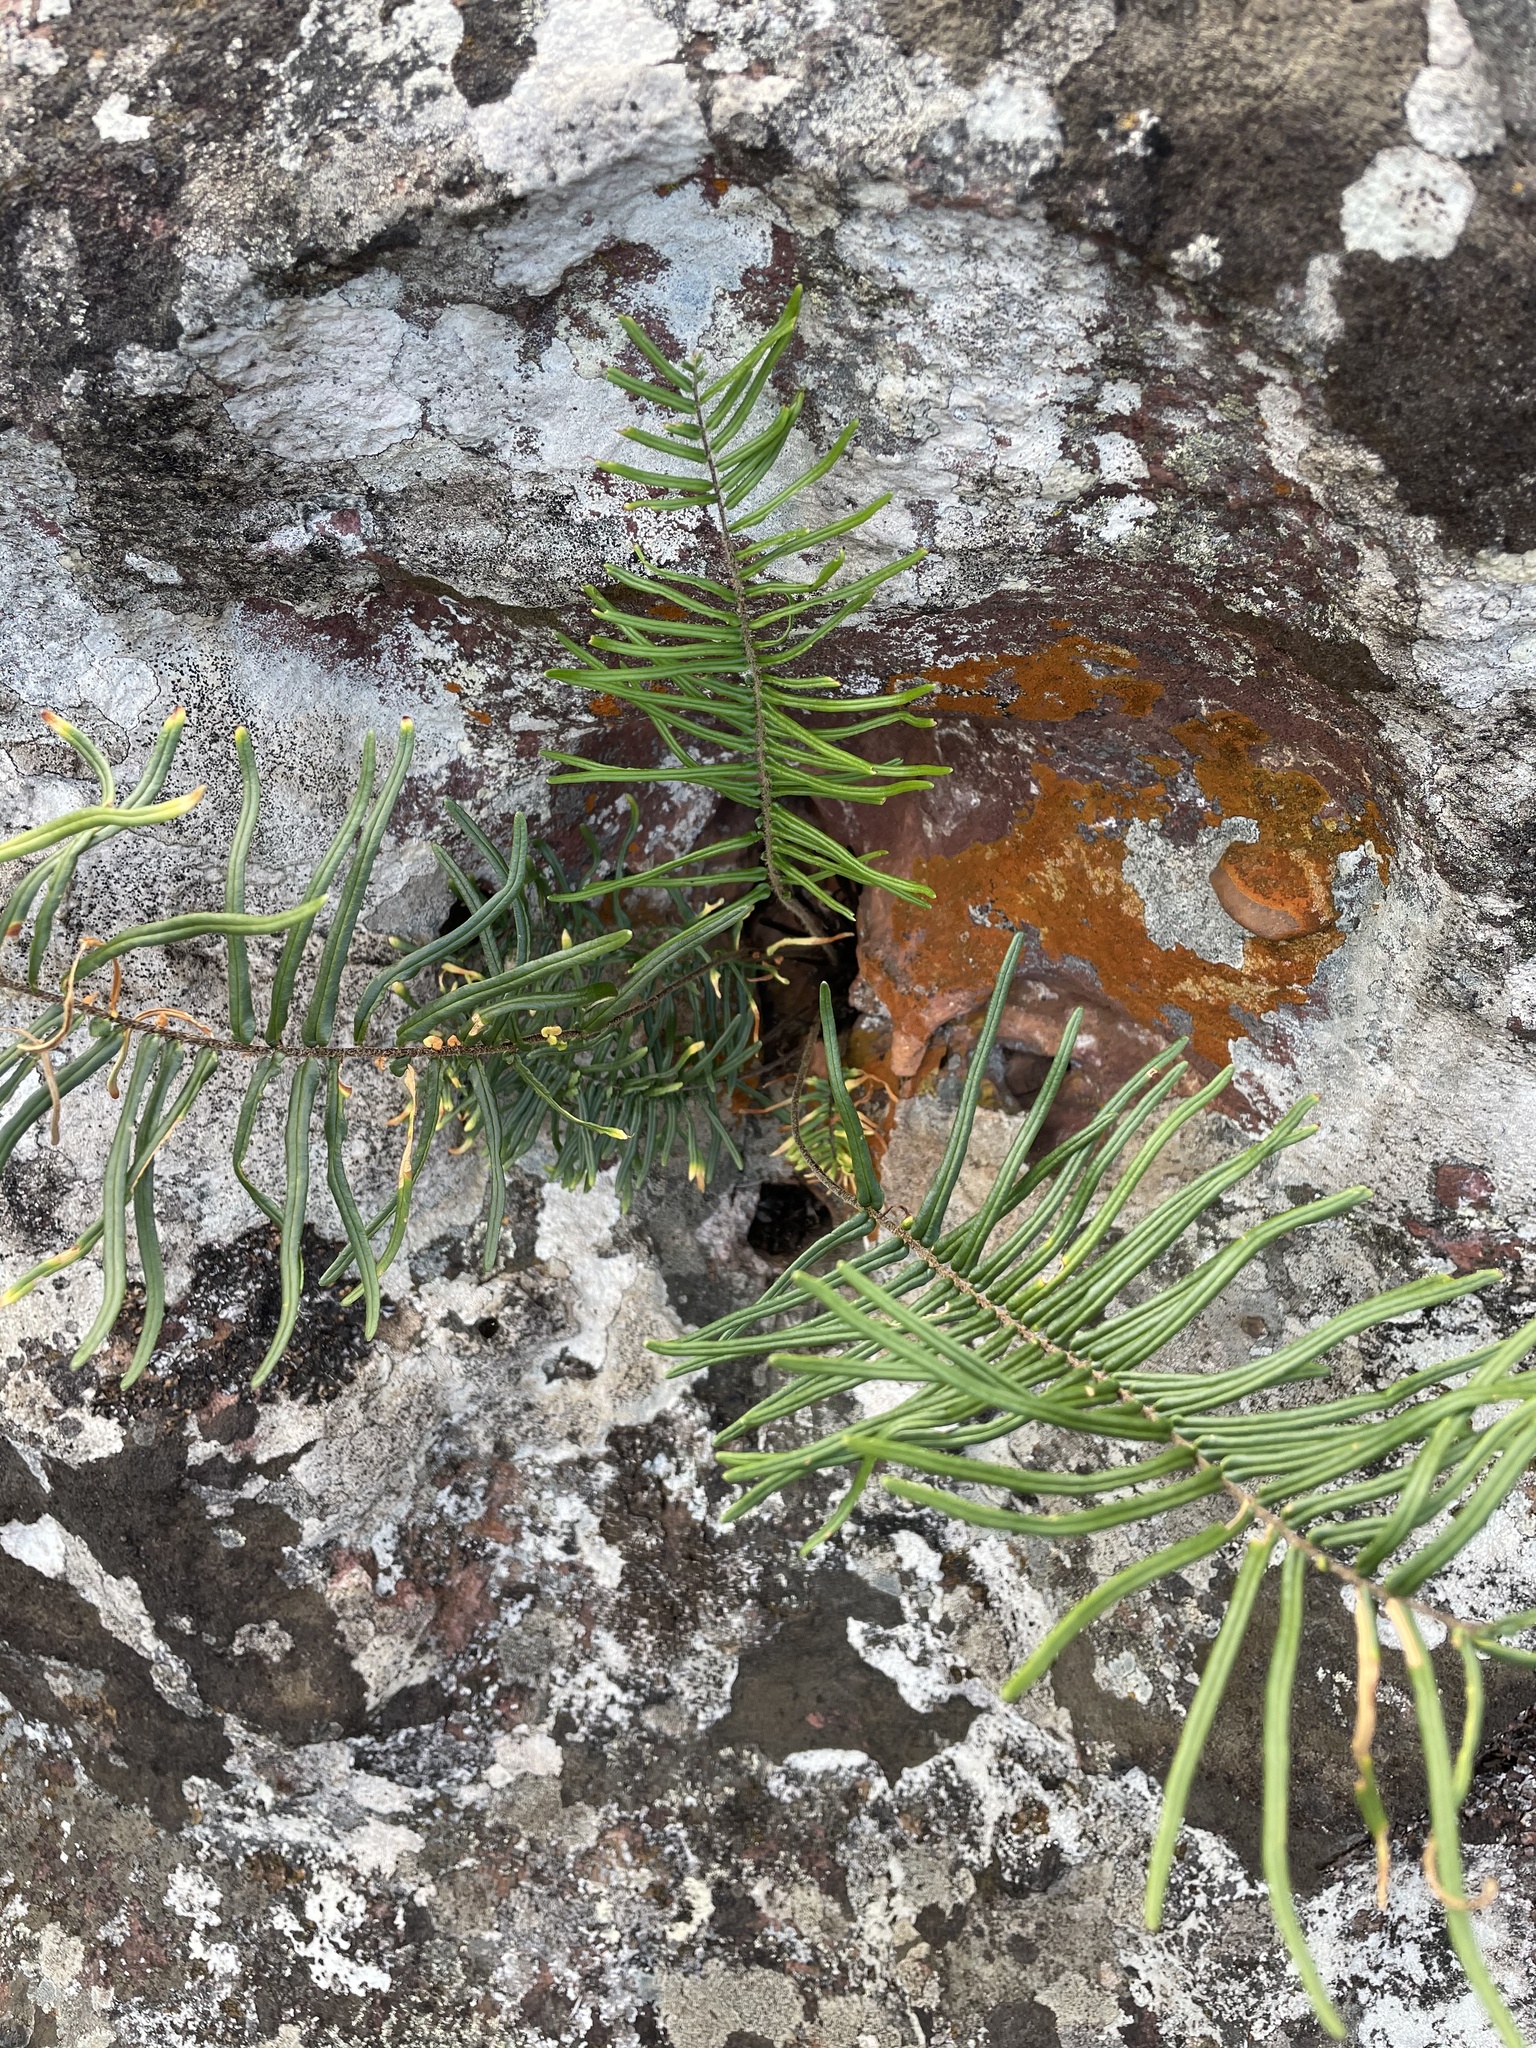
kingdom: Plantae
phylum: Tracheophyta
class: Polypodiopsida
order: Polypodiales
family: Pteridaceae
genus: Pellaea
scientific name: Pellaea pectiniformis
